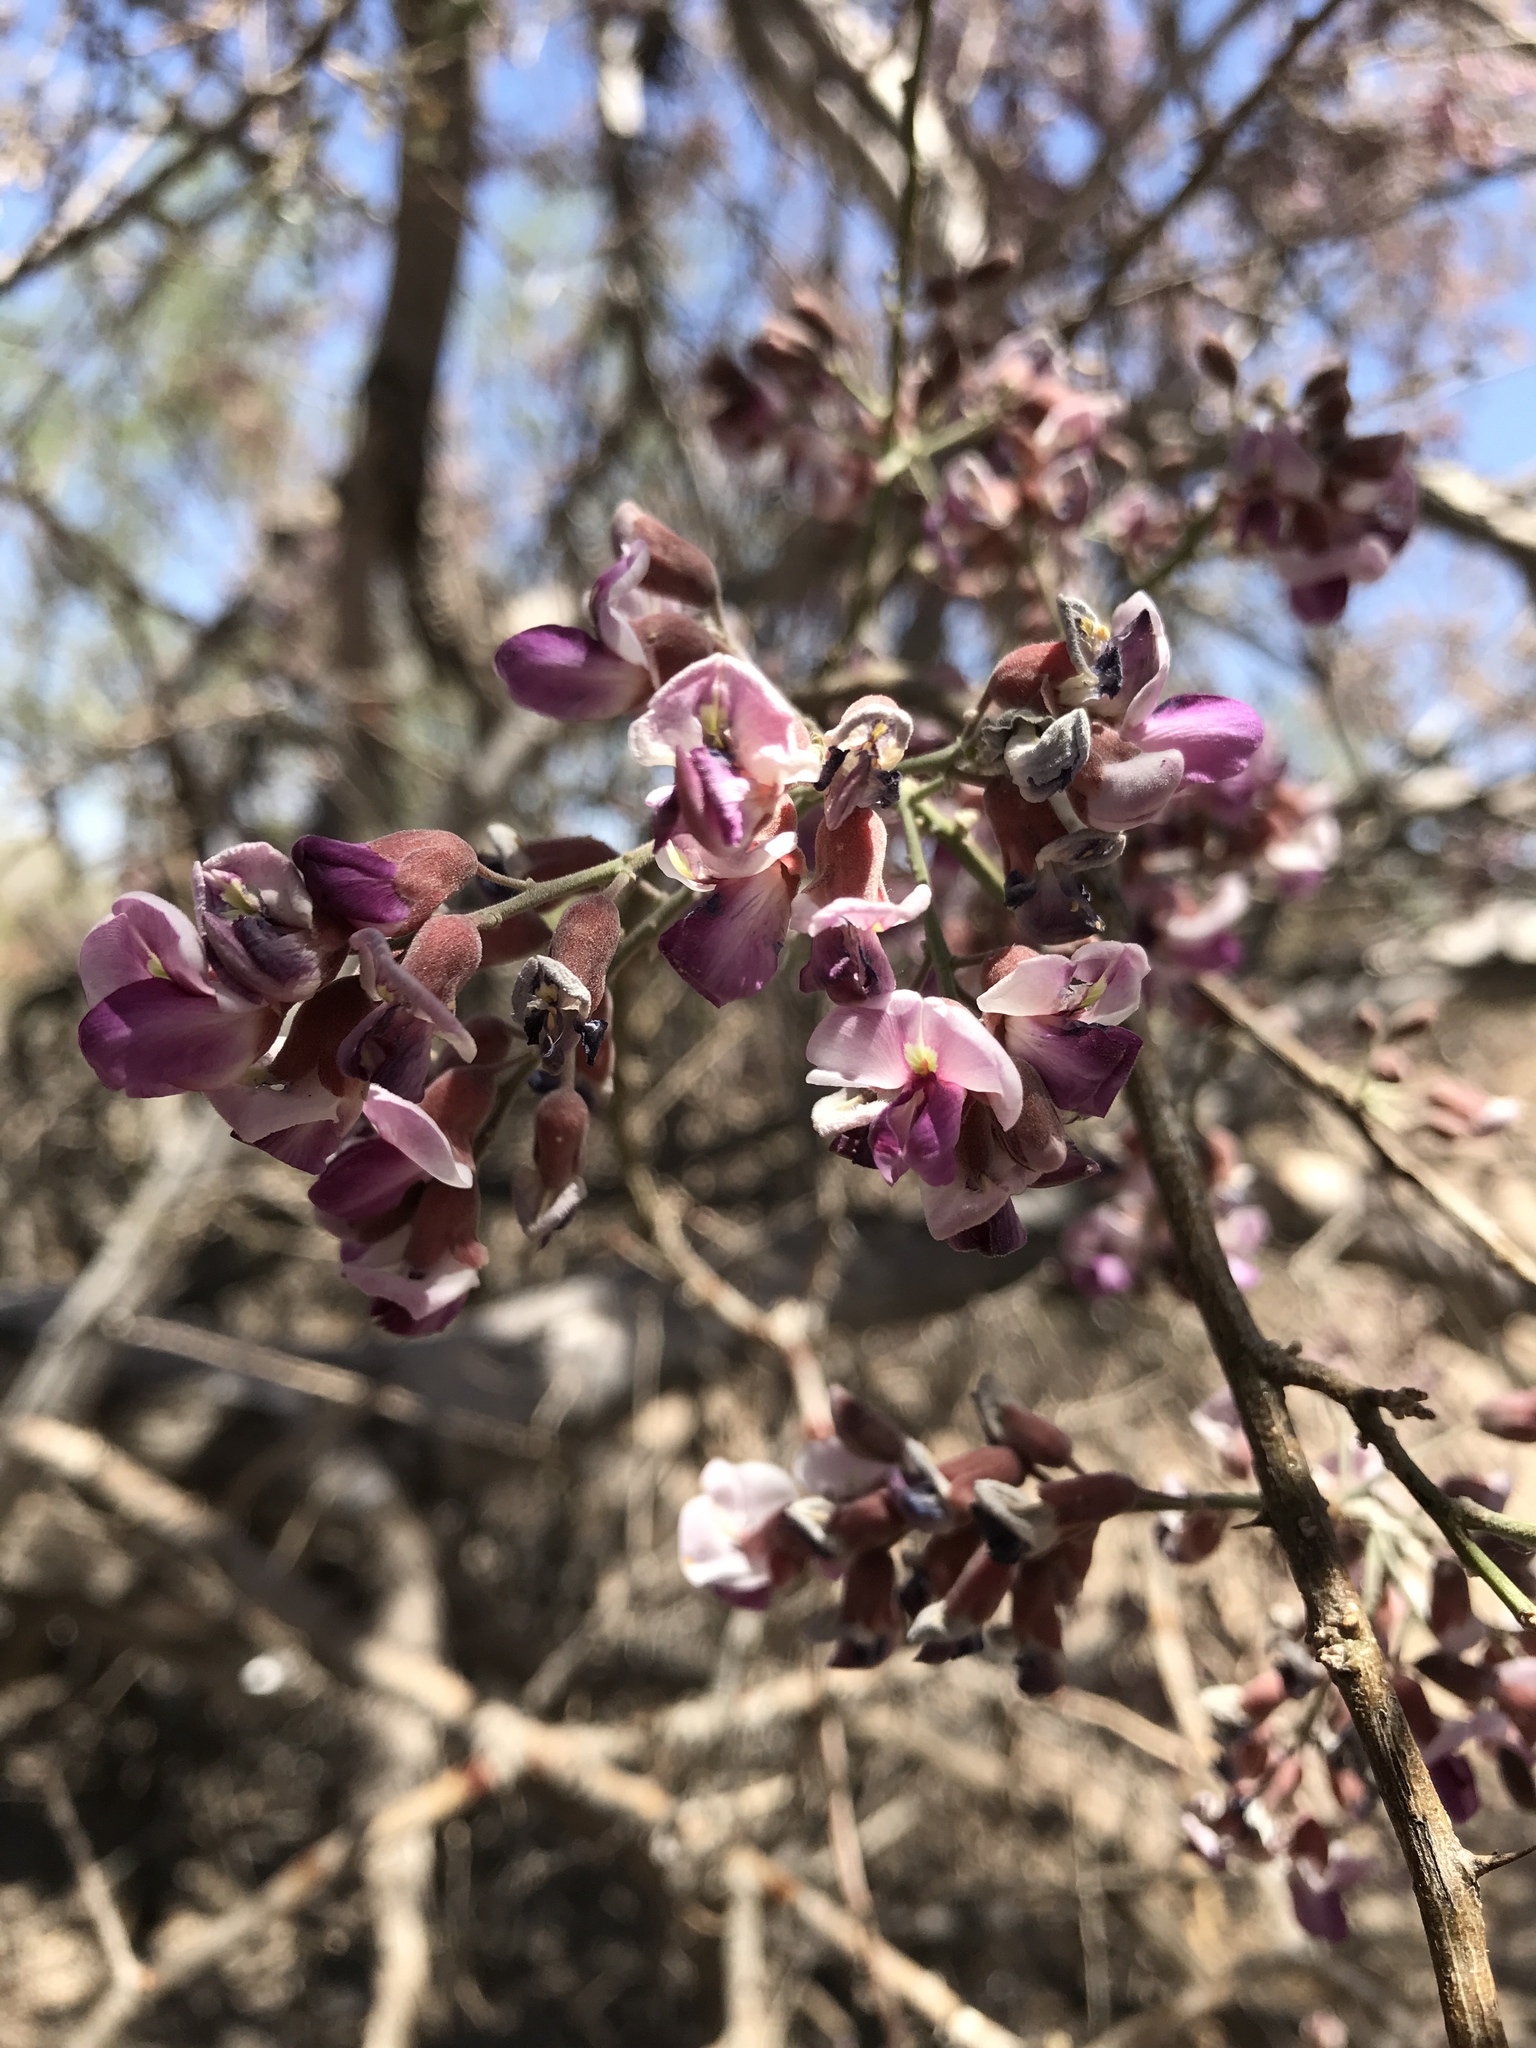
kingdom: Plantae
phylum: Tracheophyta
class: Magnoliopsida
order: Fabales
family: Fabaceae
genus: Olneya
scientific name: Olneya tesota
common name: Desert ironwood
